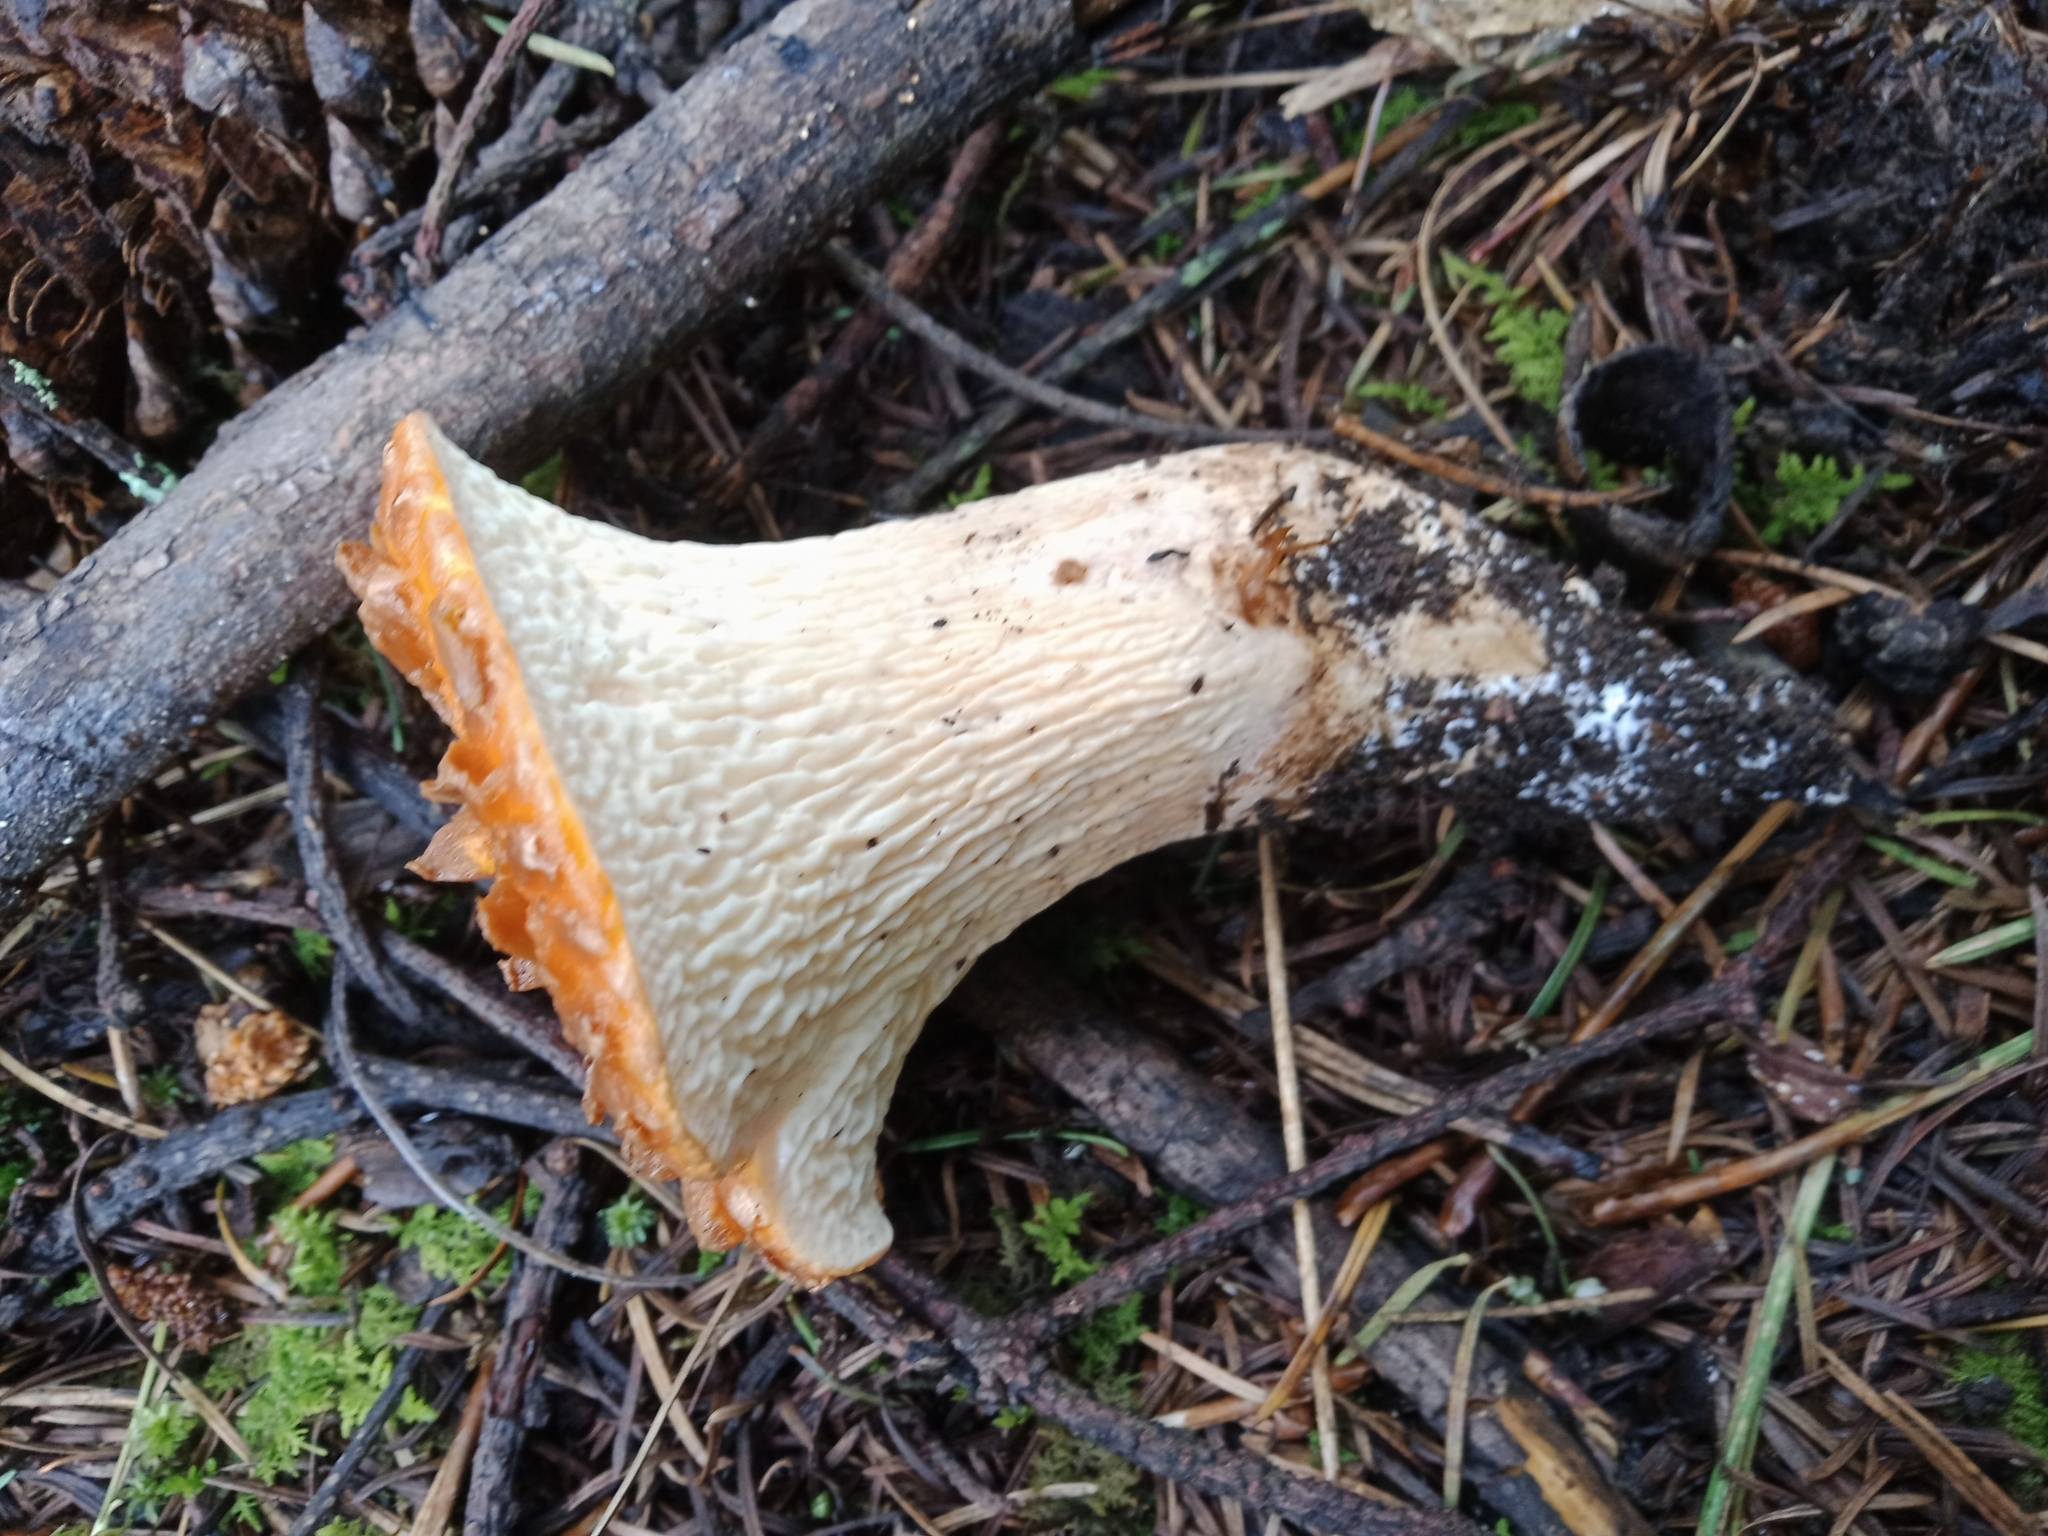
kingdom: Fungi
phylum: Basidiomycota
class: Agaricomycetes
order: Gomphales
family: Gomphaceae
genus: Turbinellus
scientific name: Turbinellus floccosus
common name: Scaly chanterelle
